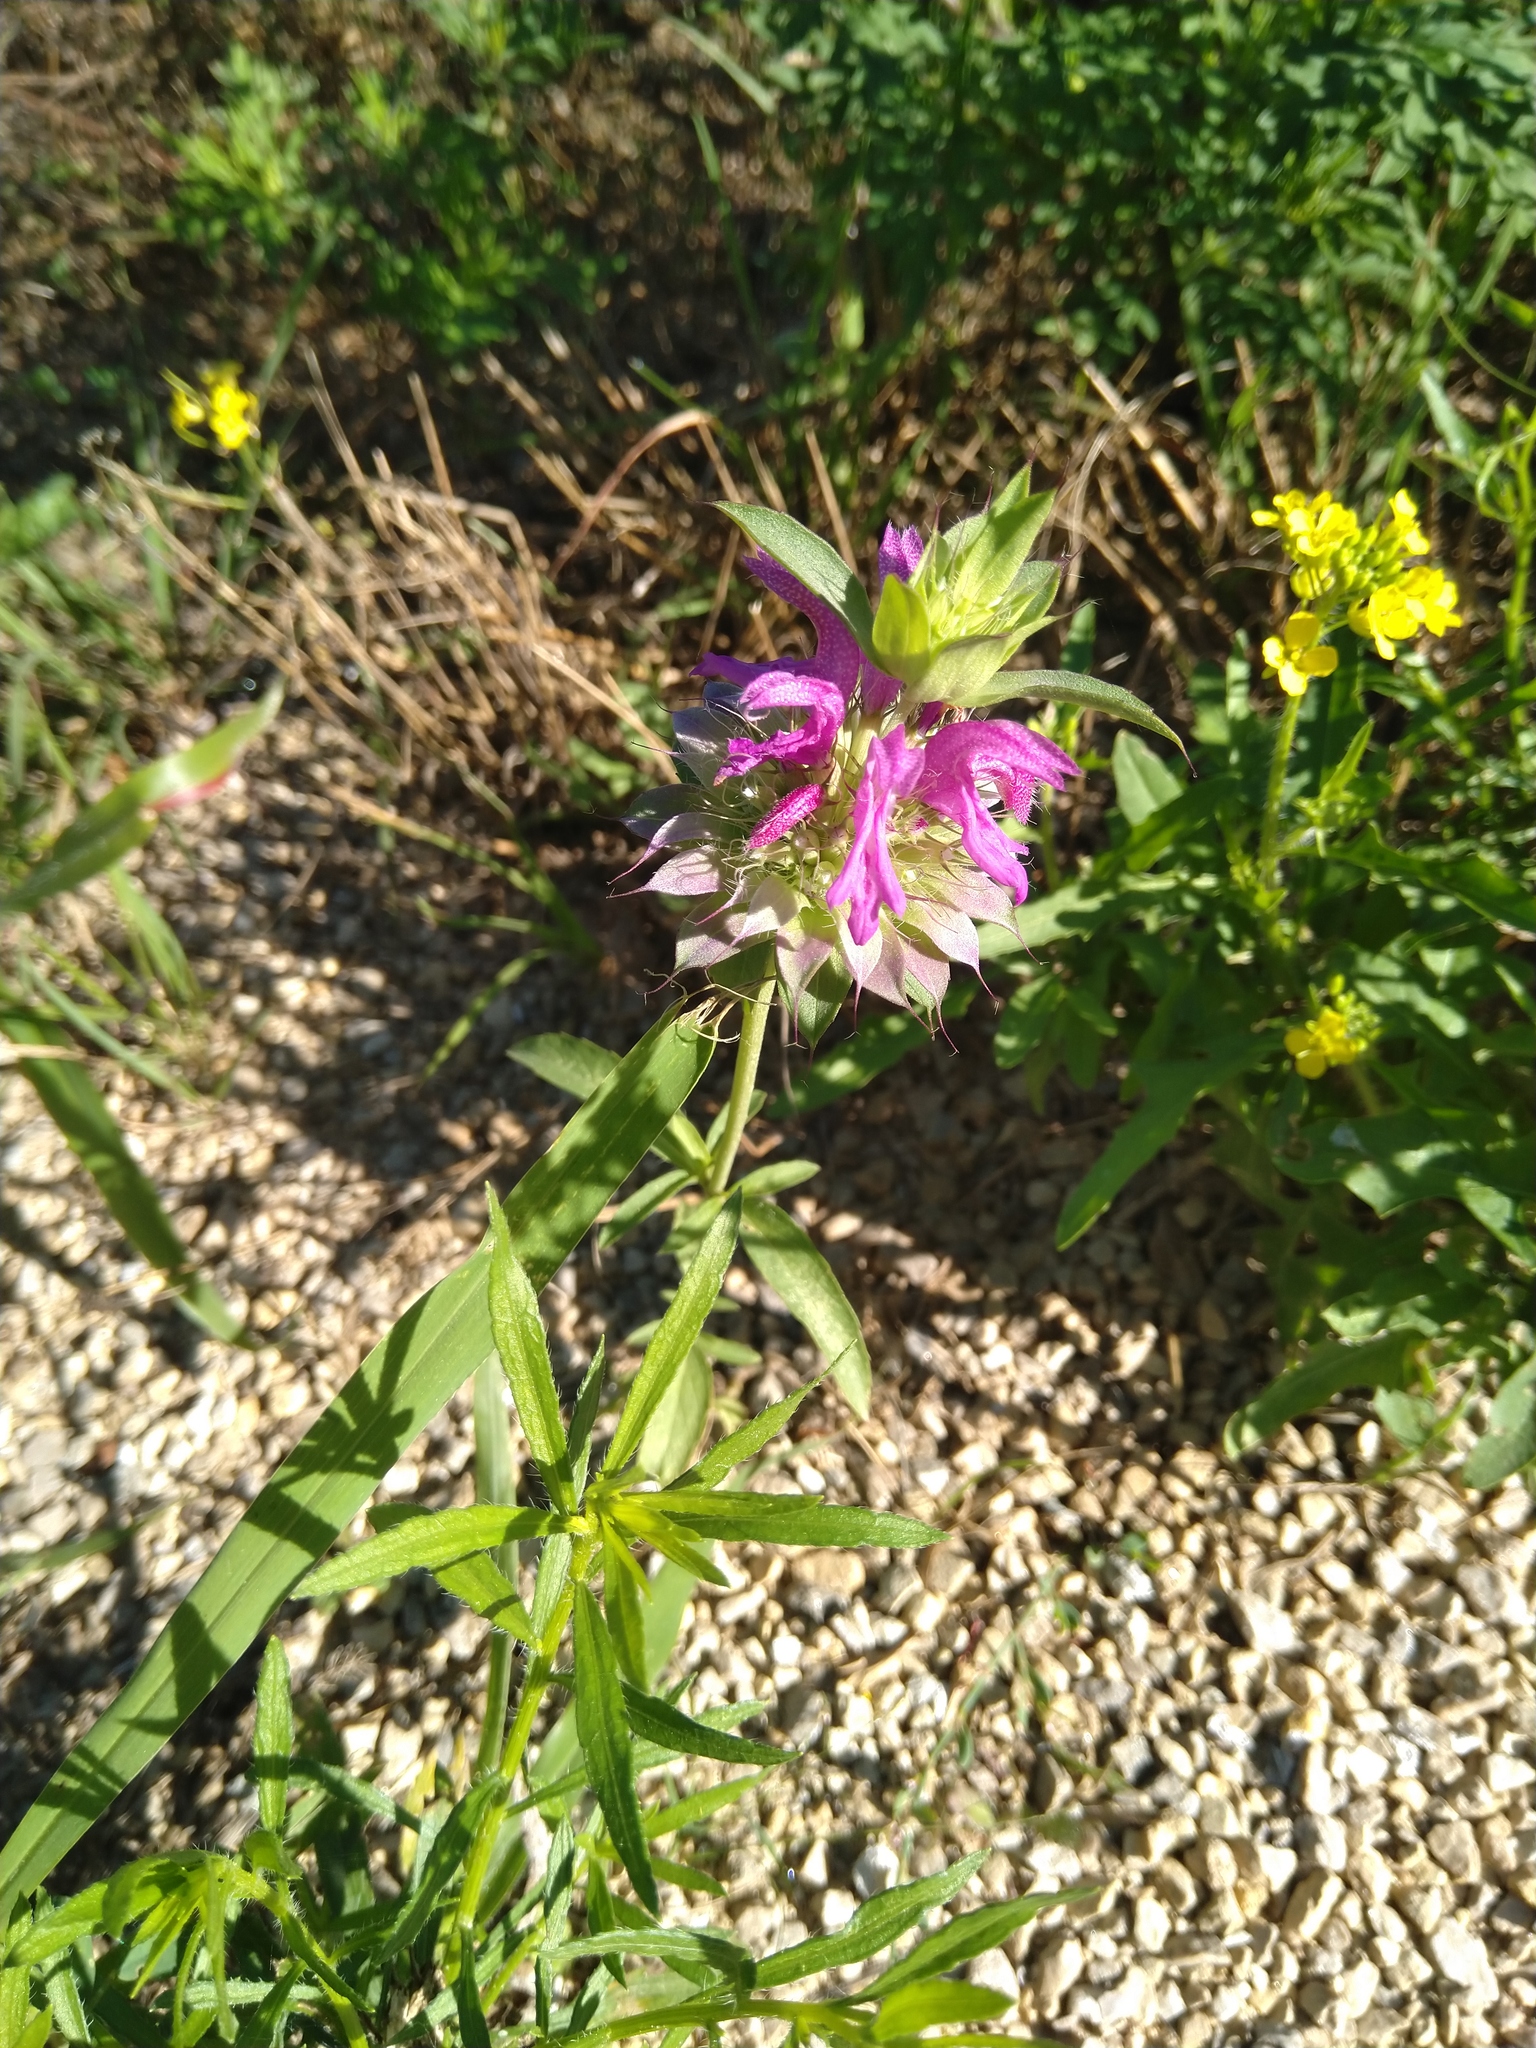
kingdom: Plantae
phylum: Tracheophyta
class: Magnoliopsida
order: Lamiales
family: Lamiaceae
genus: Monarda
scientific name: Monarda citriodora
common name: Lemon beebalm
